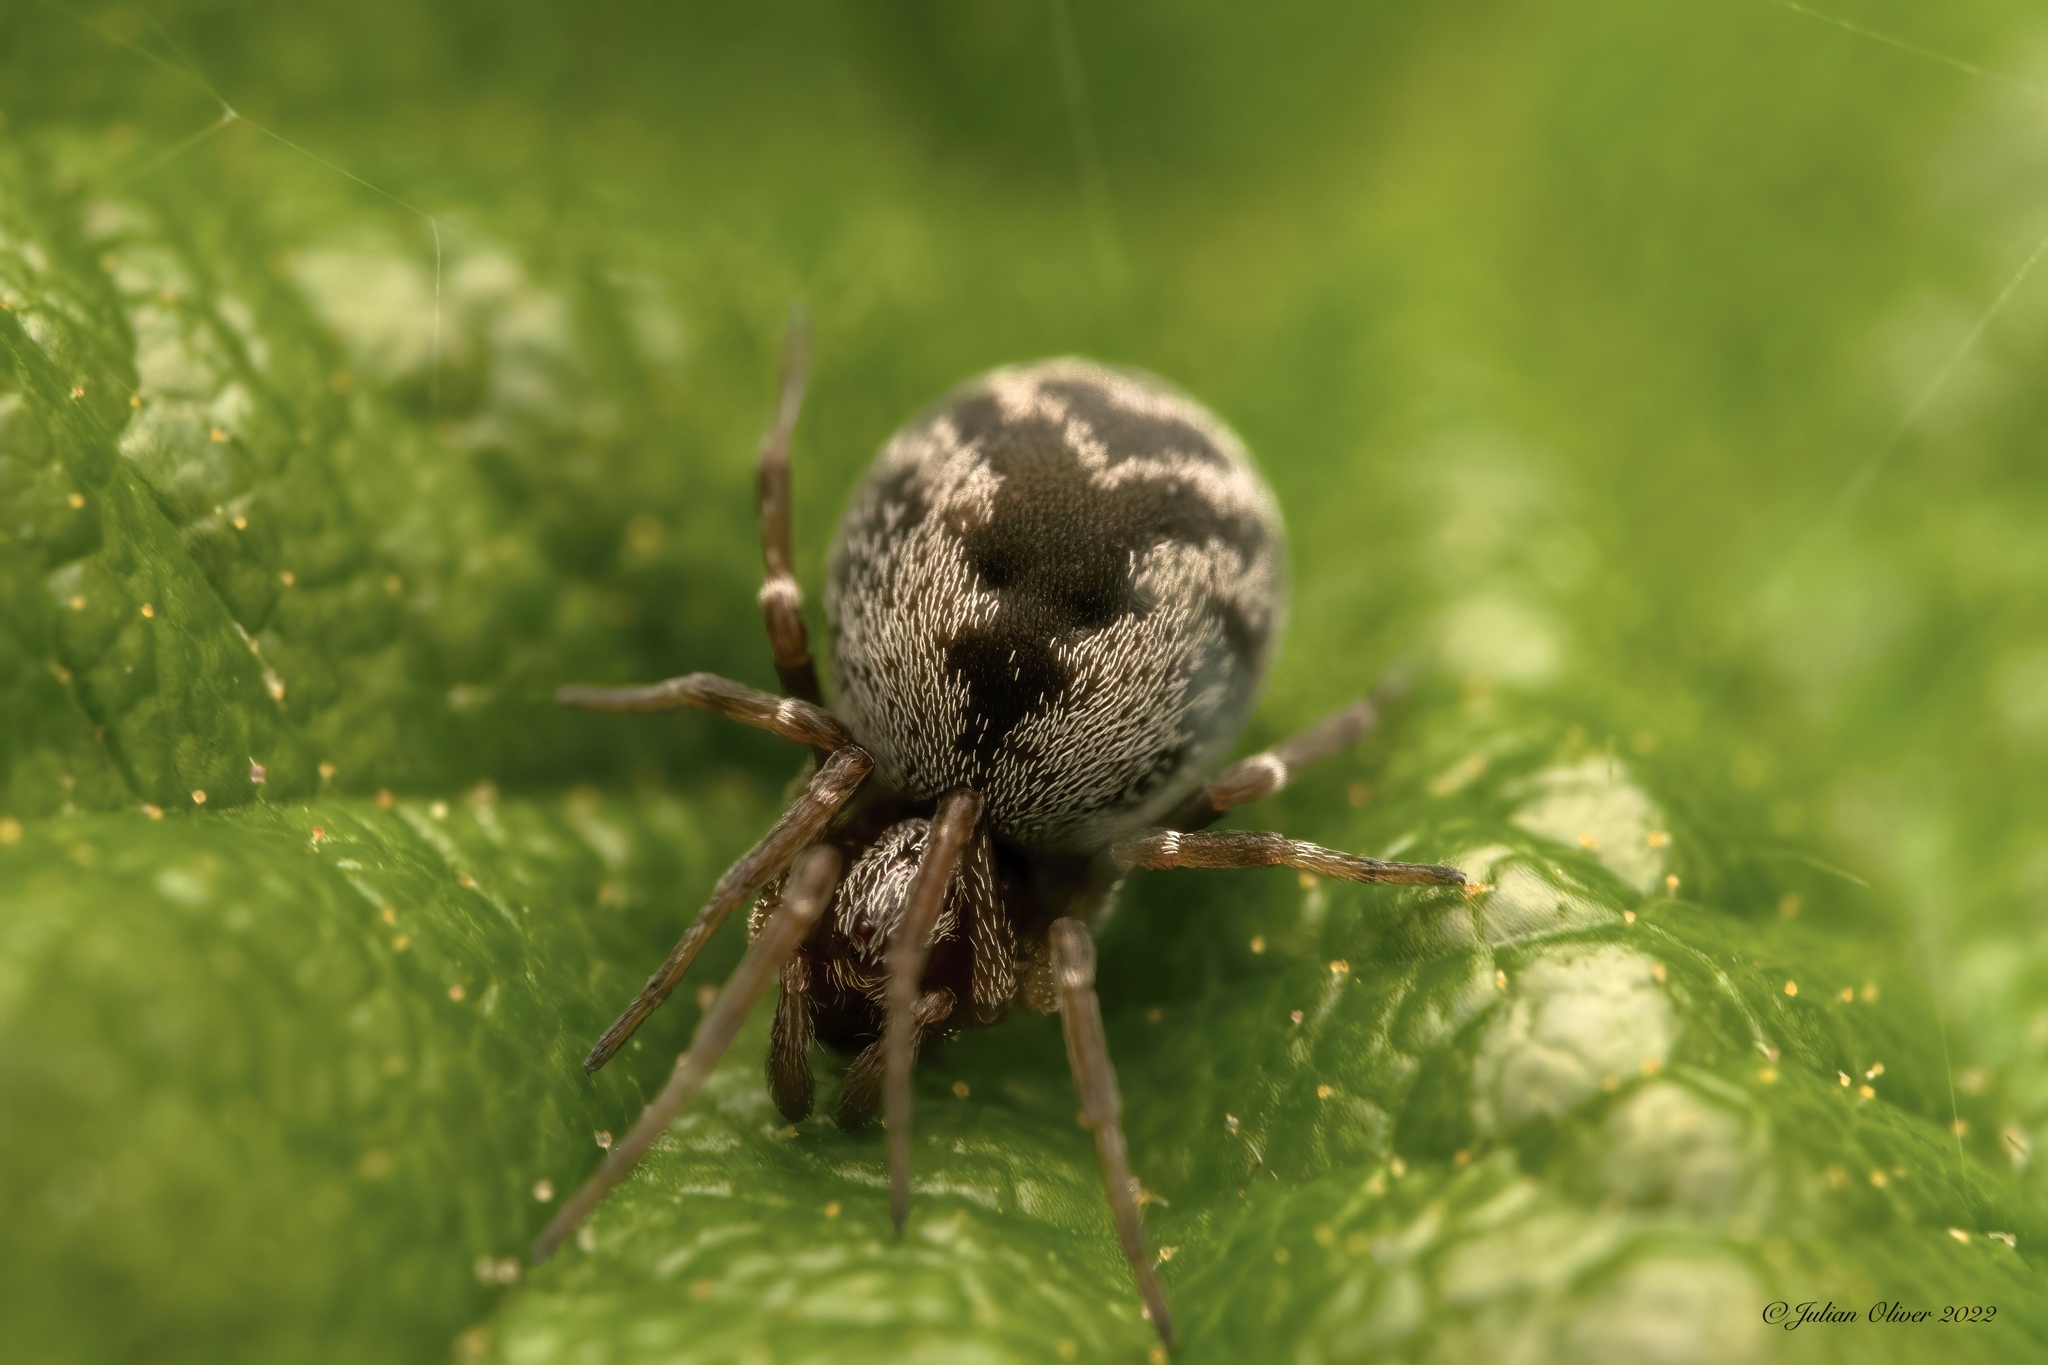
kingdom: Animalia
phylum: Arthropoda
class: Arachnida
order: Araneae
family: Dictynidae
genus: Brigittea
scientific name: Brigittea latens
